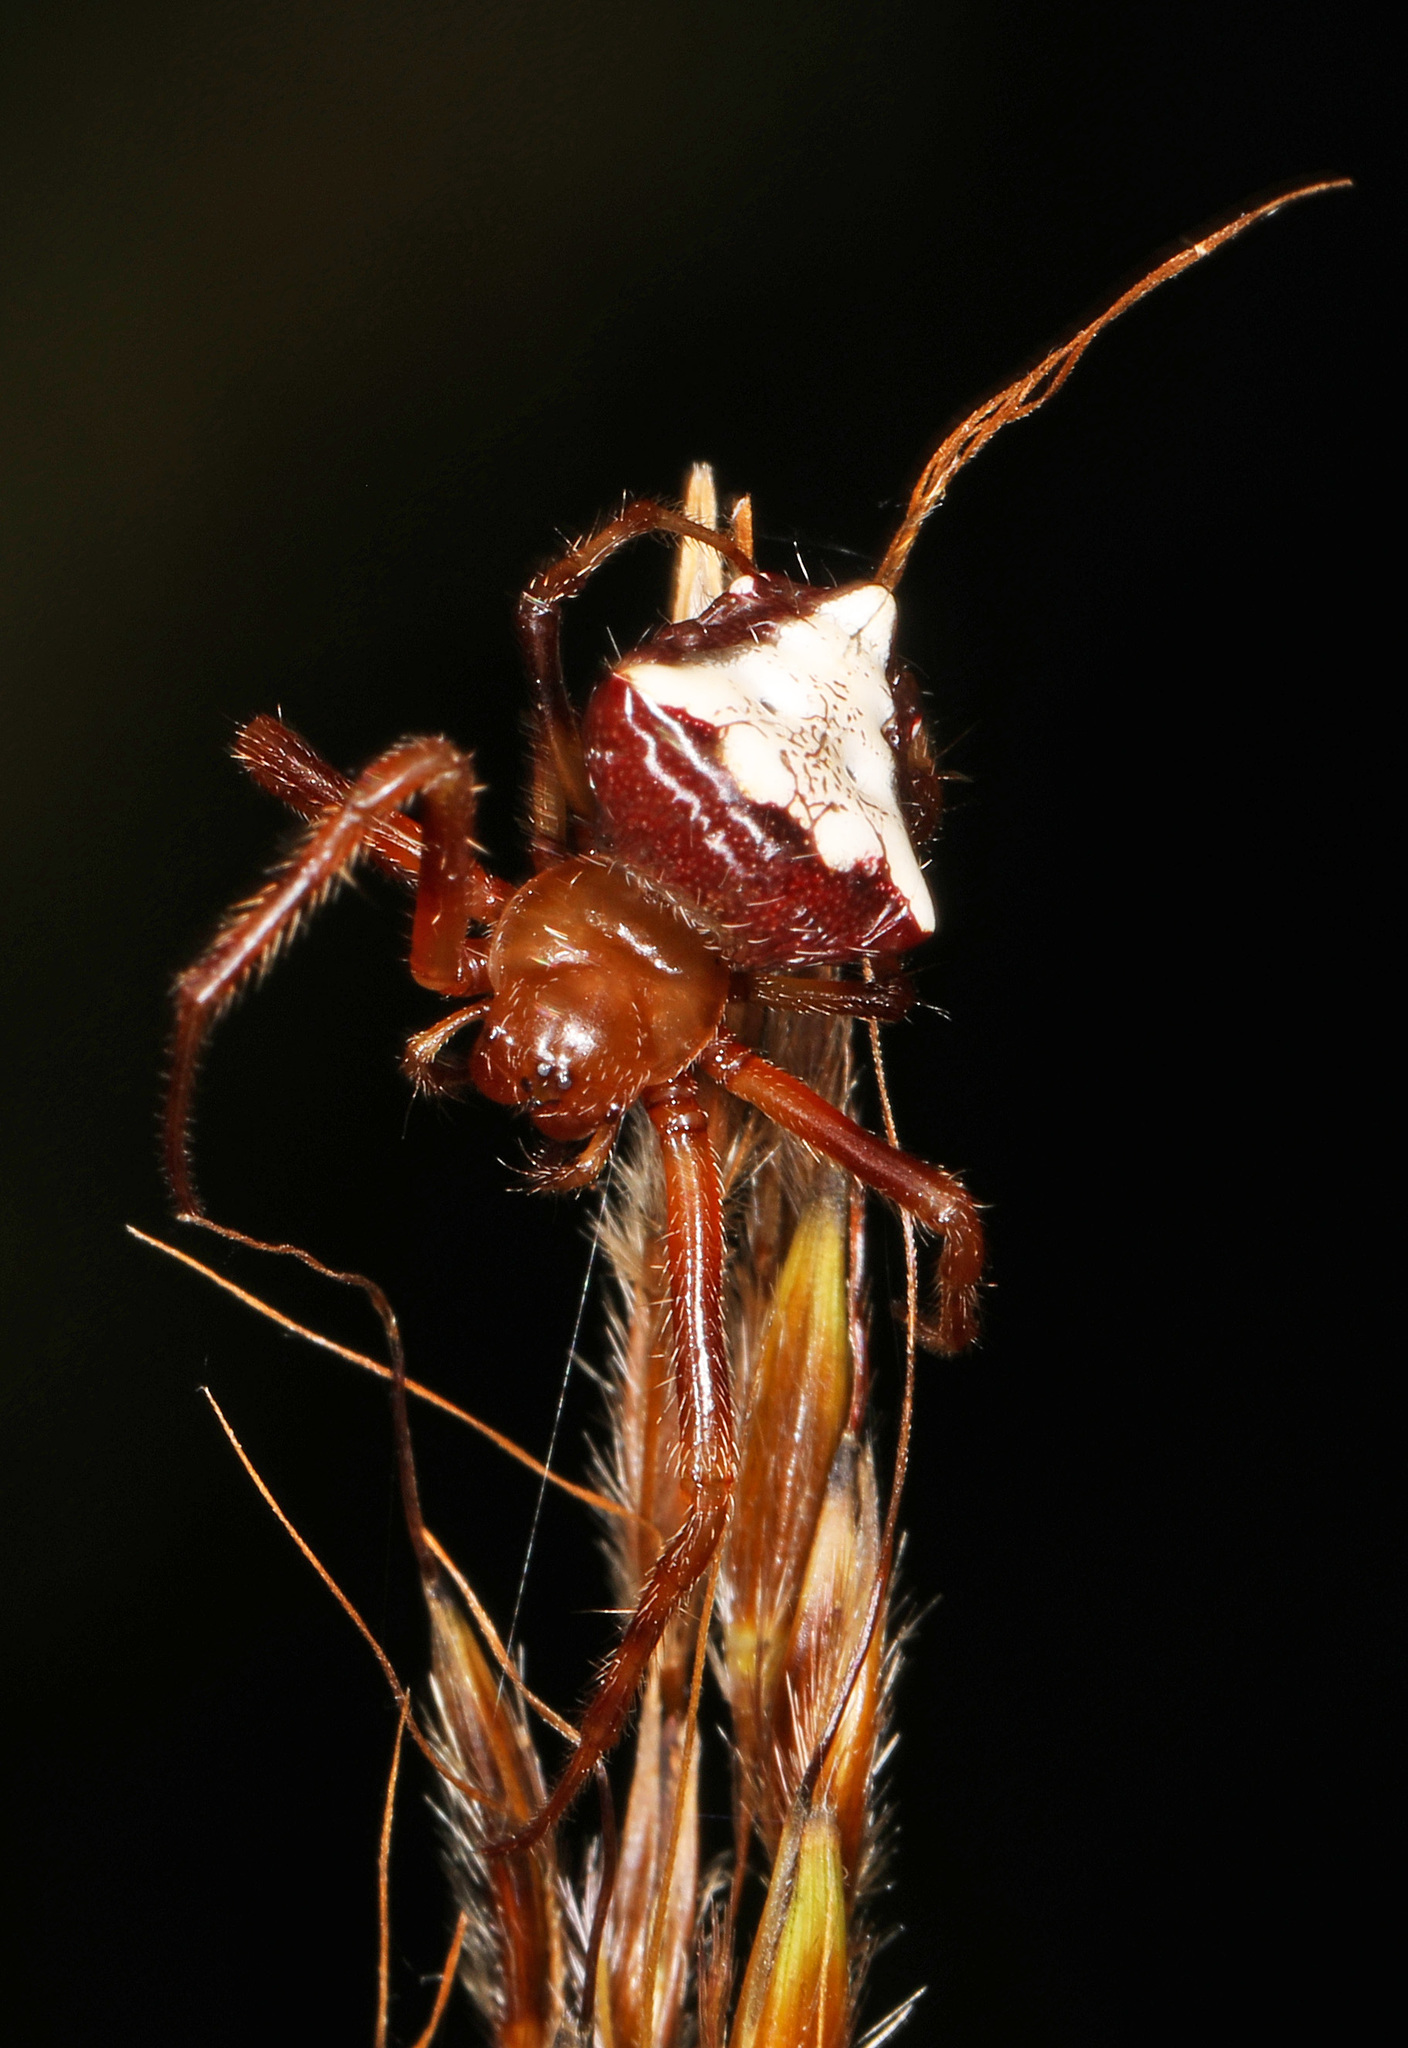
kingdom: Animalia
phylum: Arthropoda
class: Arachnida
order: Araneae
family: Araneidae
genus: Verrucosa
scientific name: Verrucosa arenata
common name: Orb weavers
